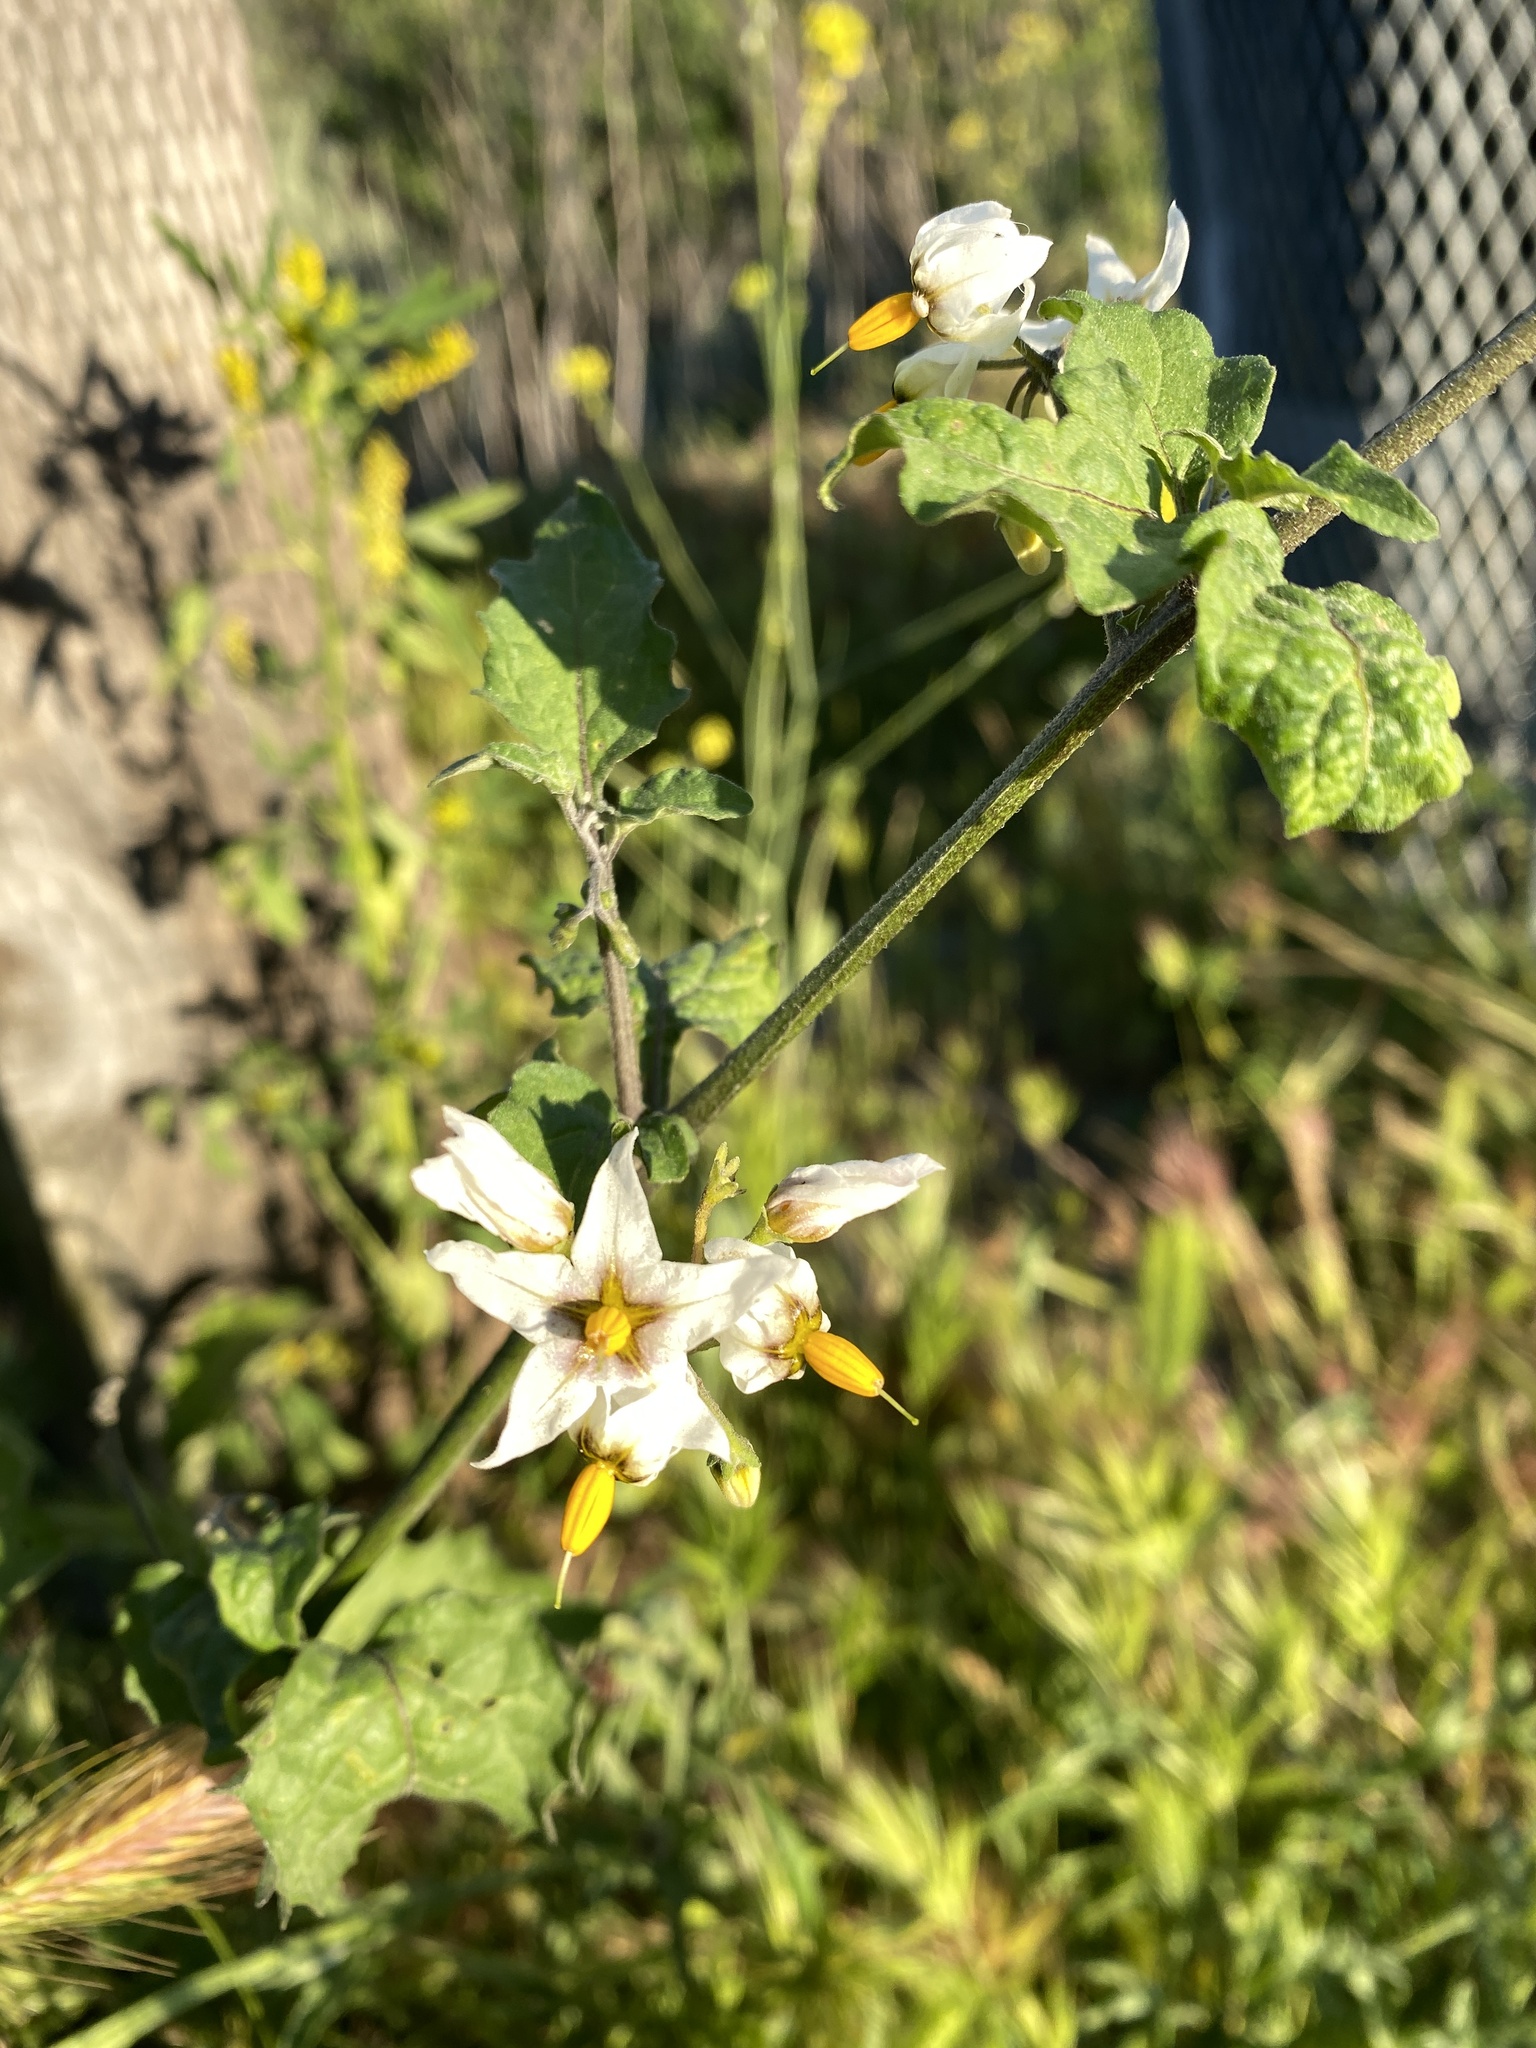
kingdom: Plantae
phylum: Tracheophyta
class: Magnoliopsida
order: Solanales
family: Solanaceae
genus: Solanum
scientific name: Solanum douglasii
